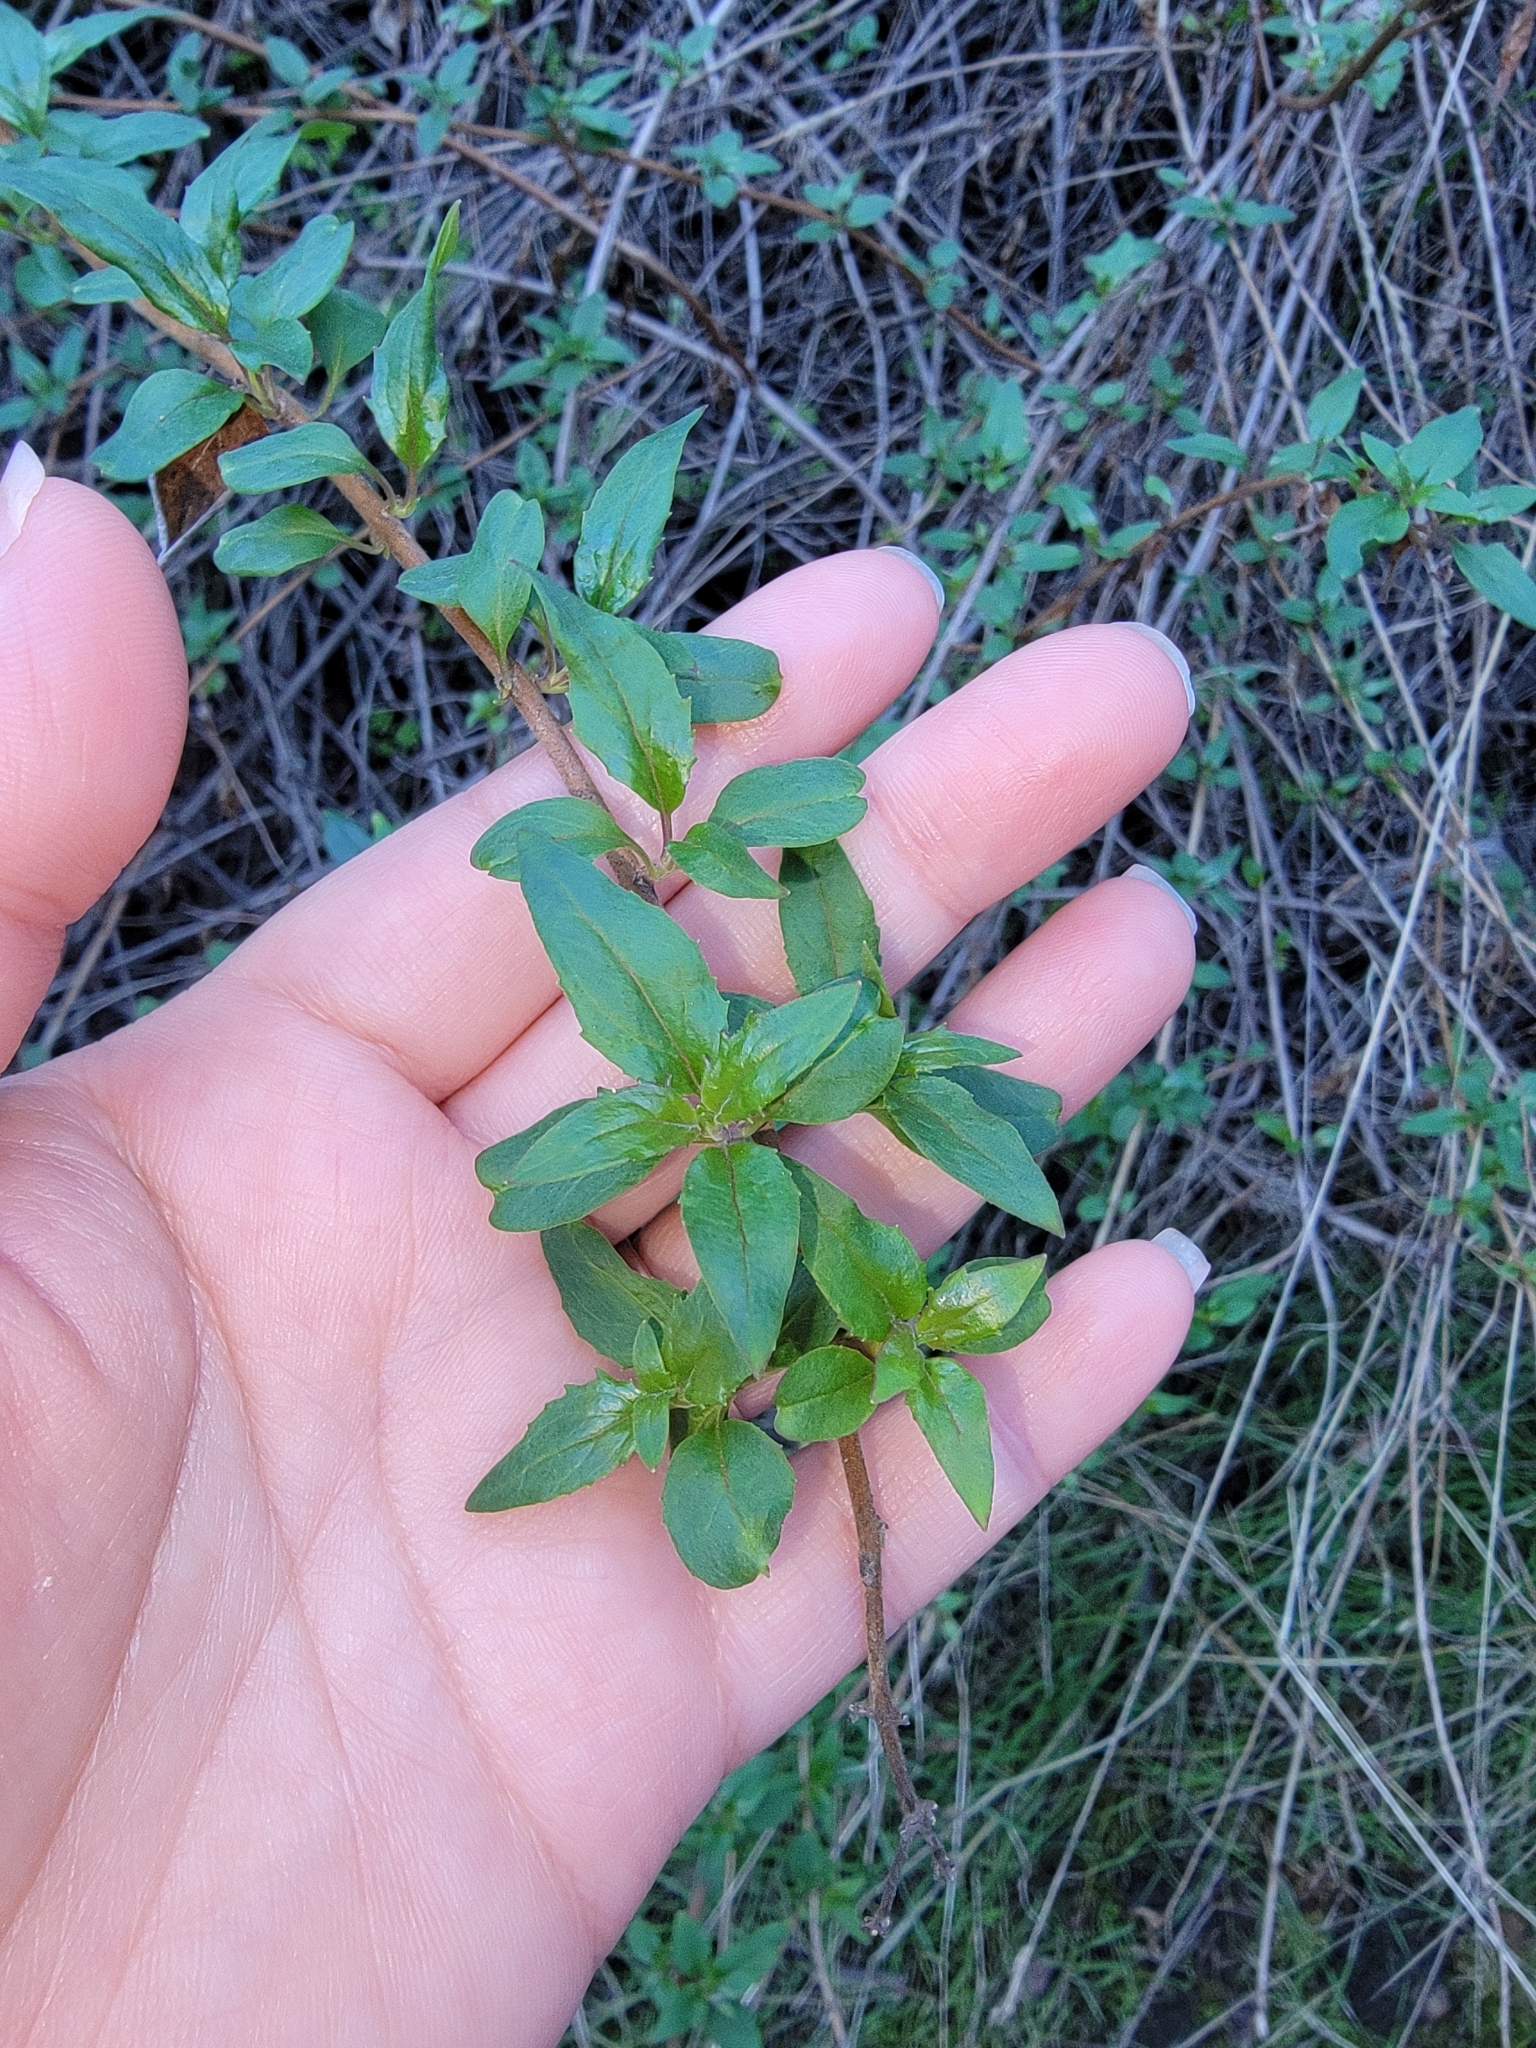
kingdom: Plantae
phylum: Tracheophyta
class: Magnoliopsida
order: Lamiales
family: Plantaginaceae
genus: Keckiella
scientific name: Keckiella cordifolia
